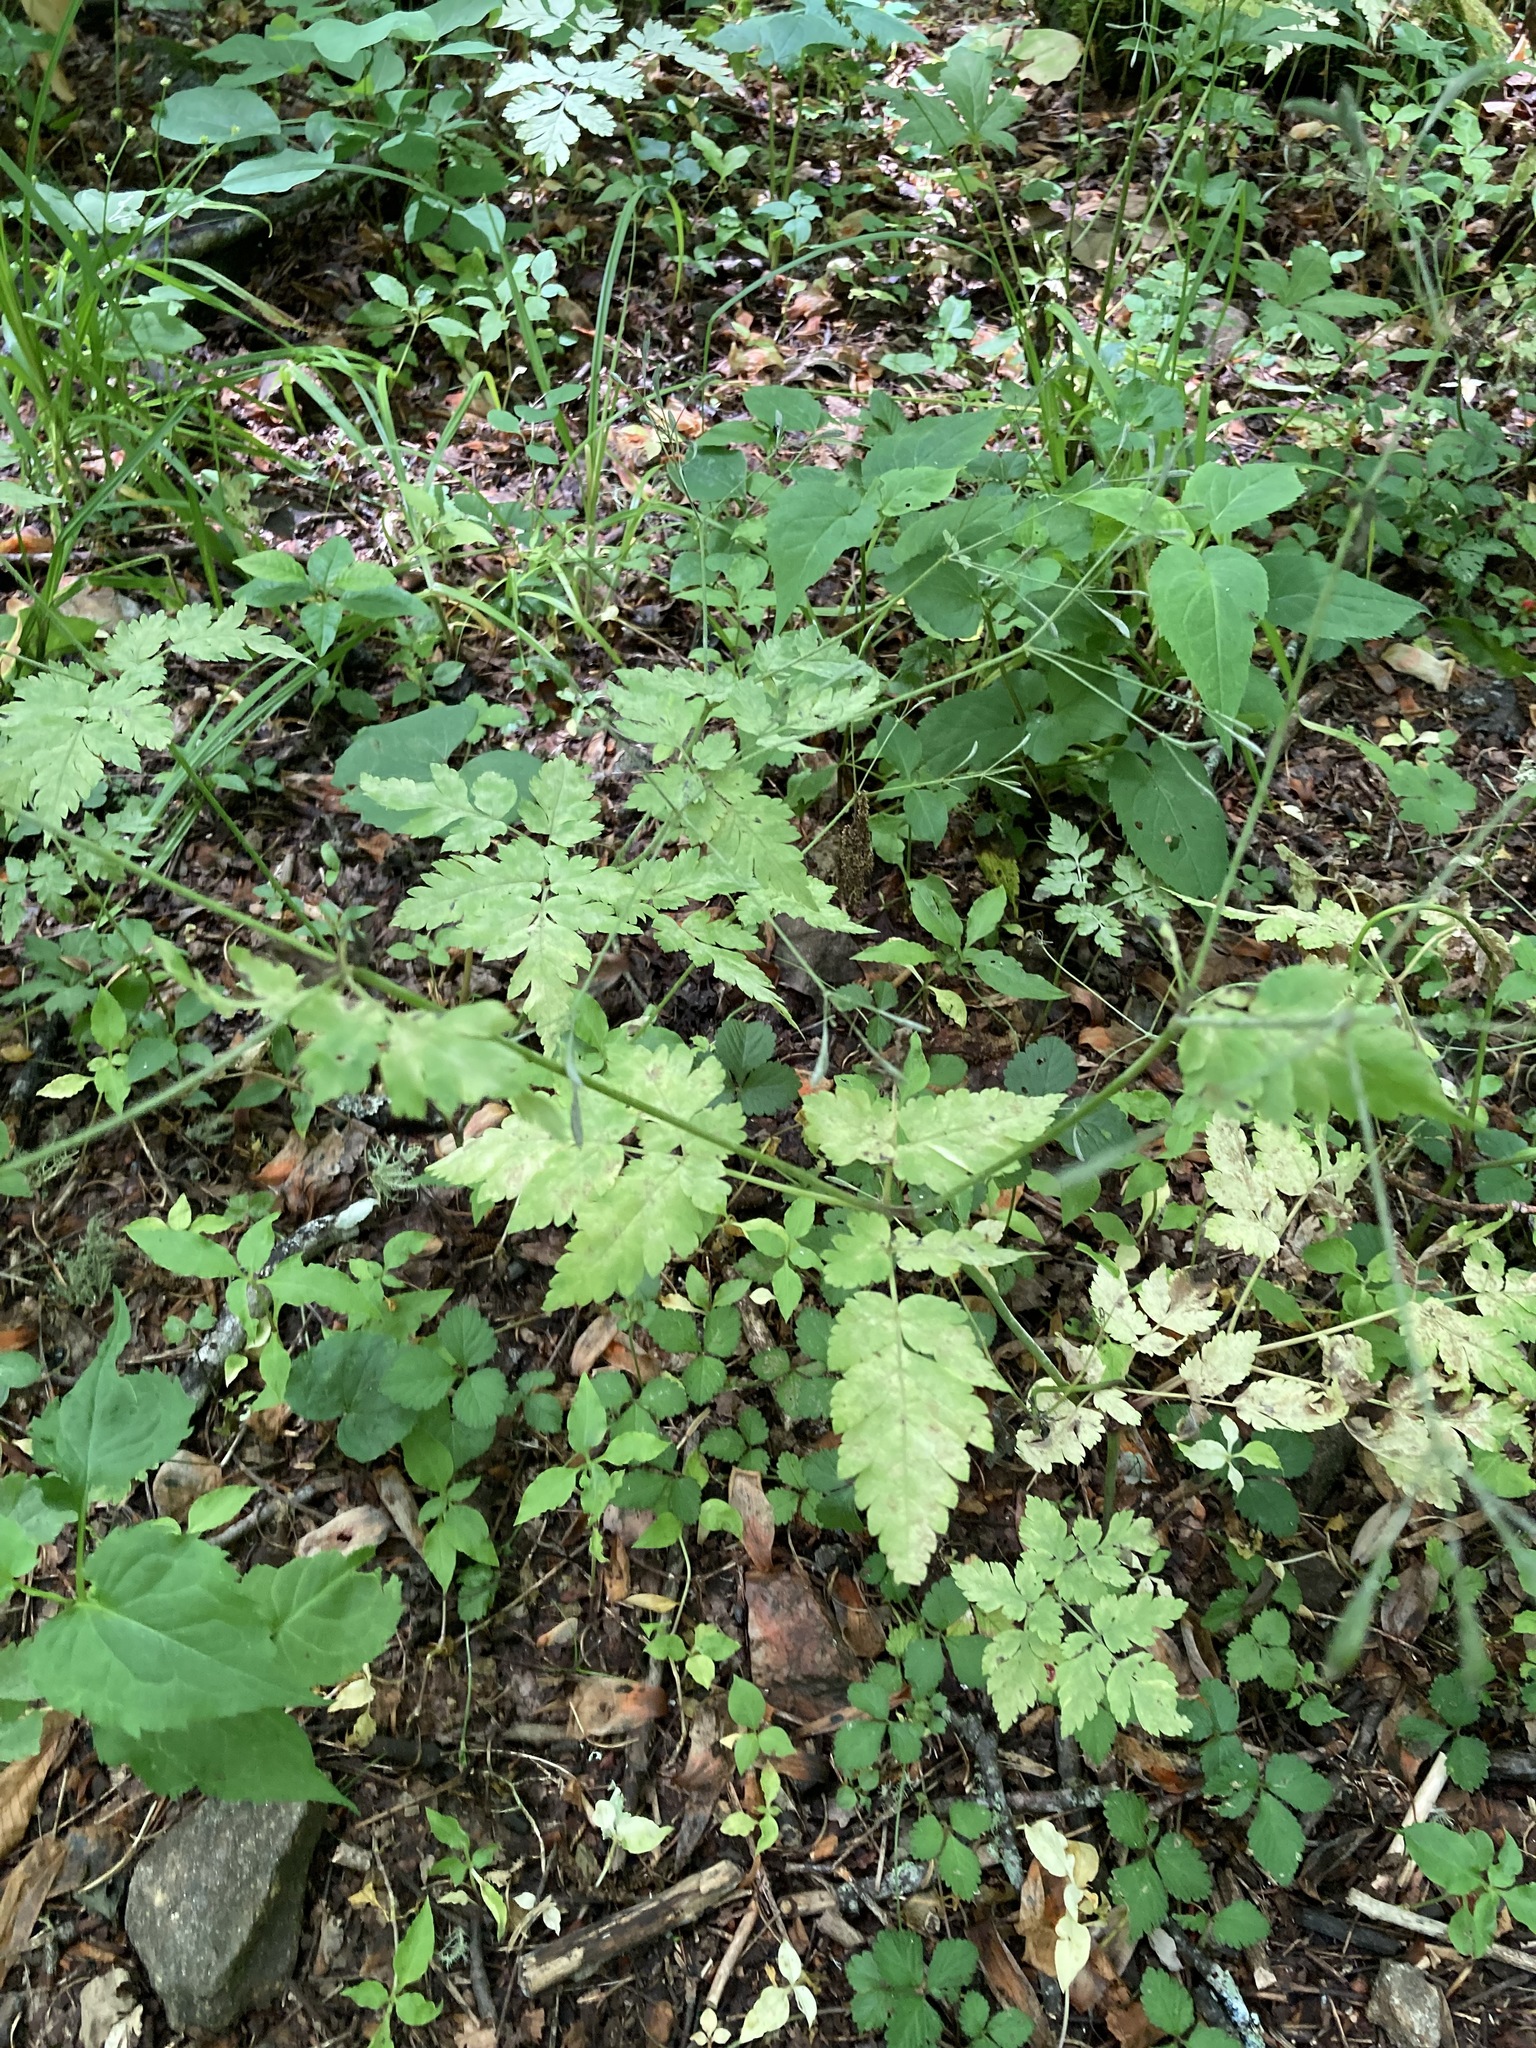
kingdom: Plantae
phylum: Tracheophyta
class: Magnoliopsida
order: Apiales
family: Apiaceae
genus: Osmorhiza
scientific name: Osmorhiza claytonii
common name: Hairy sweet cicely
